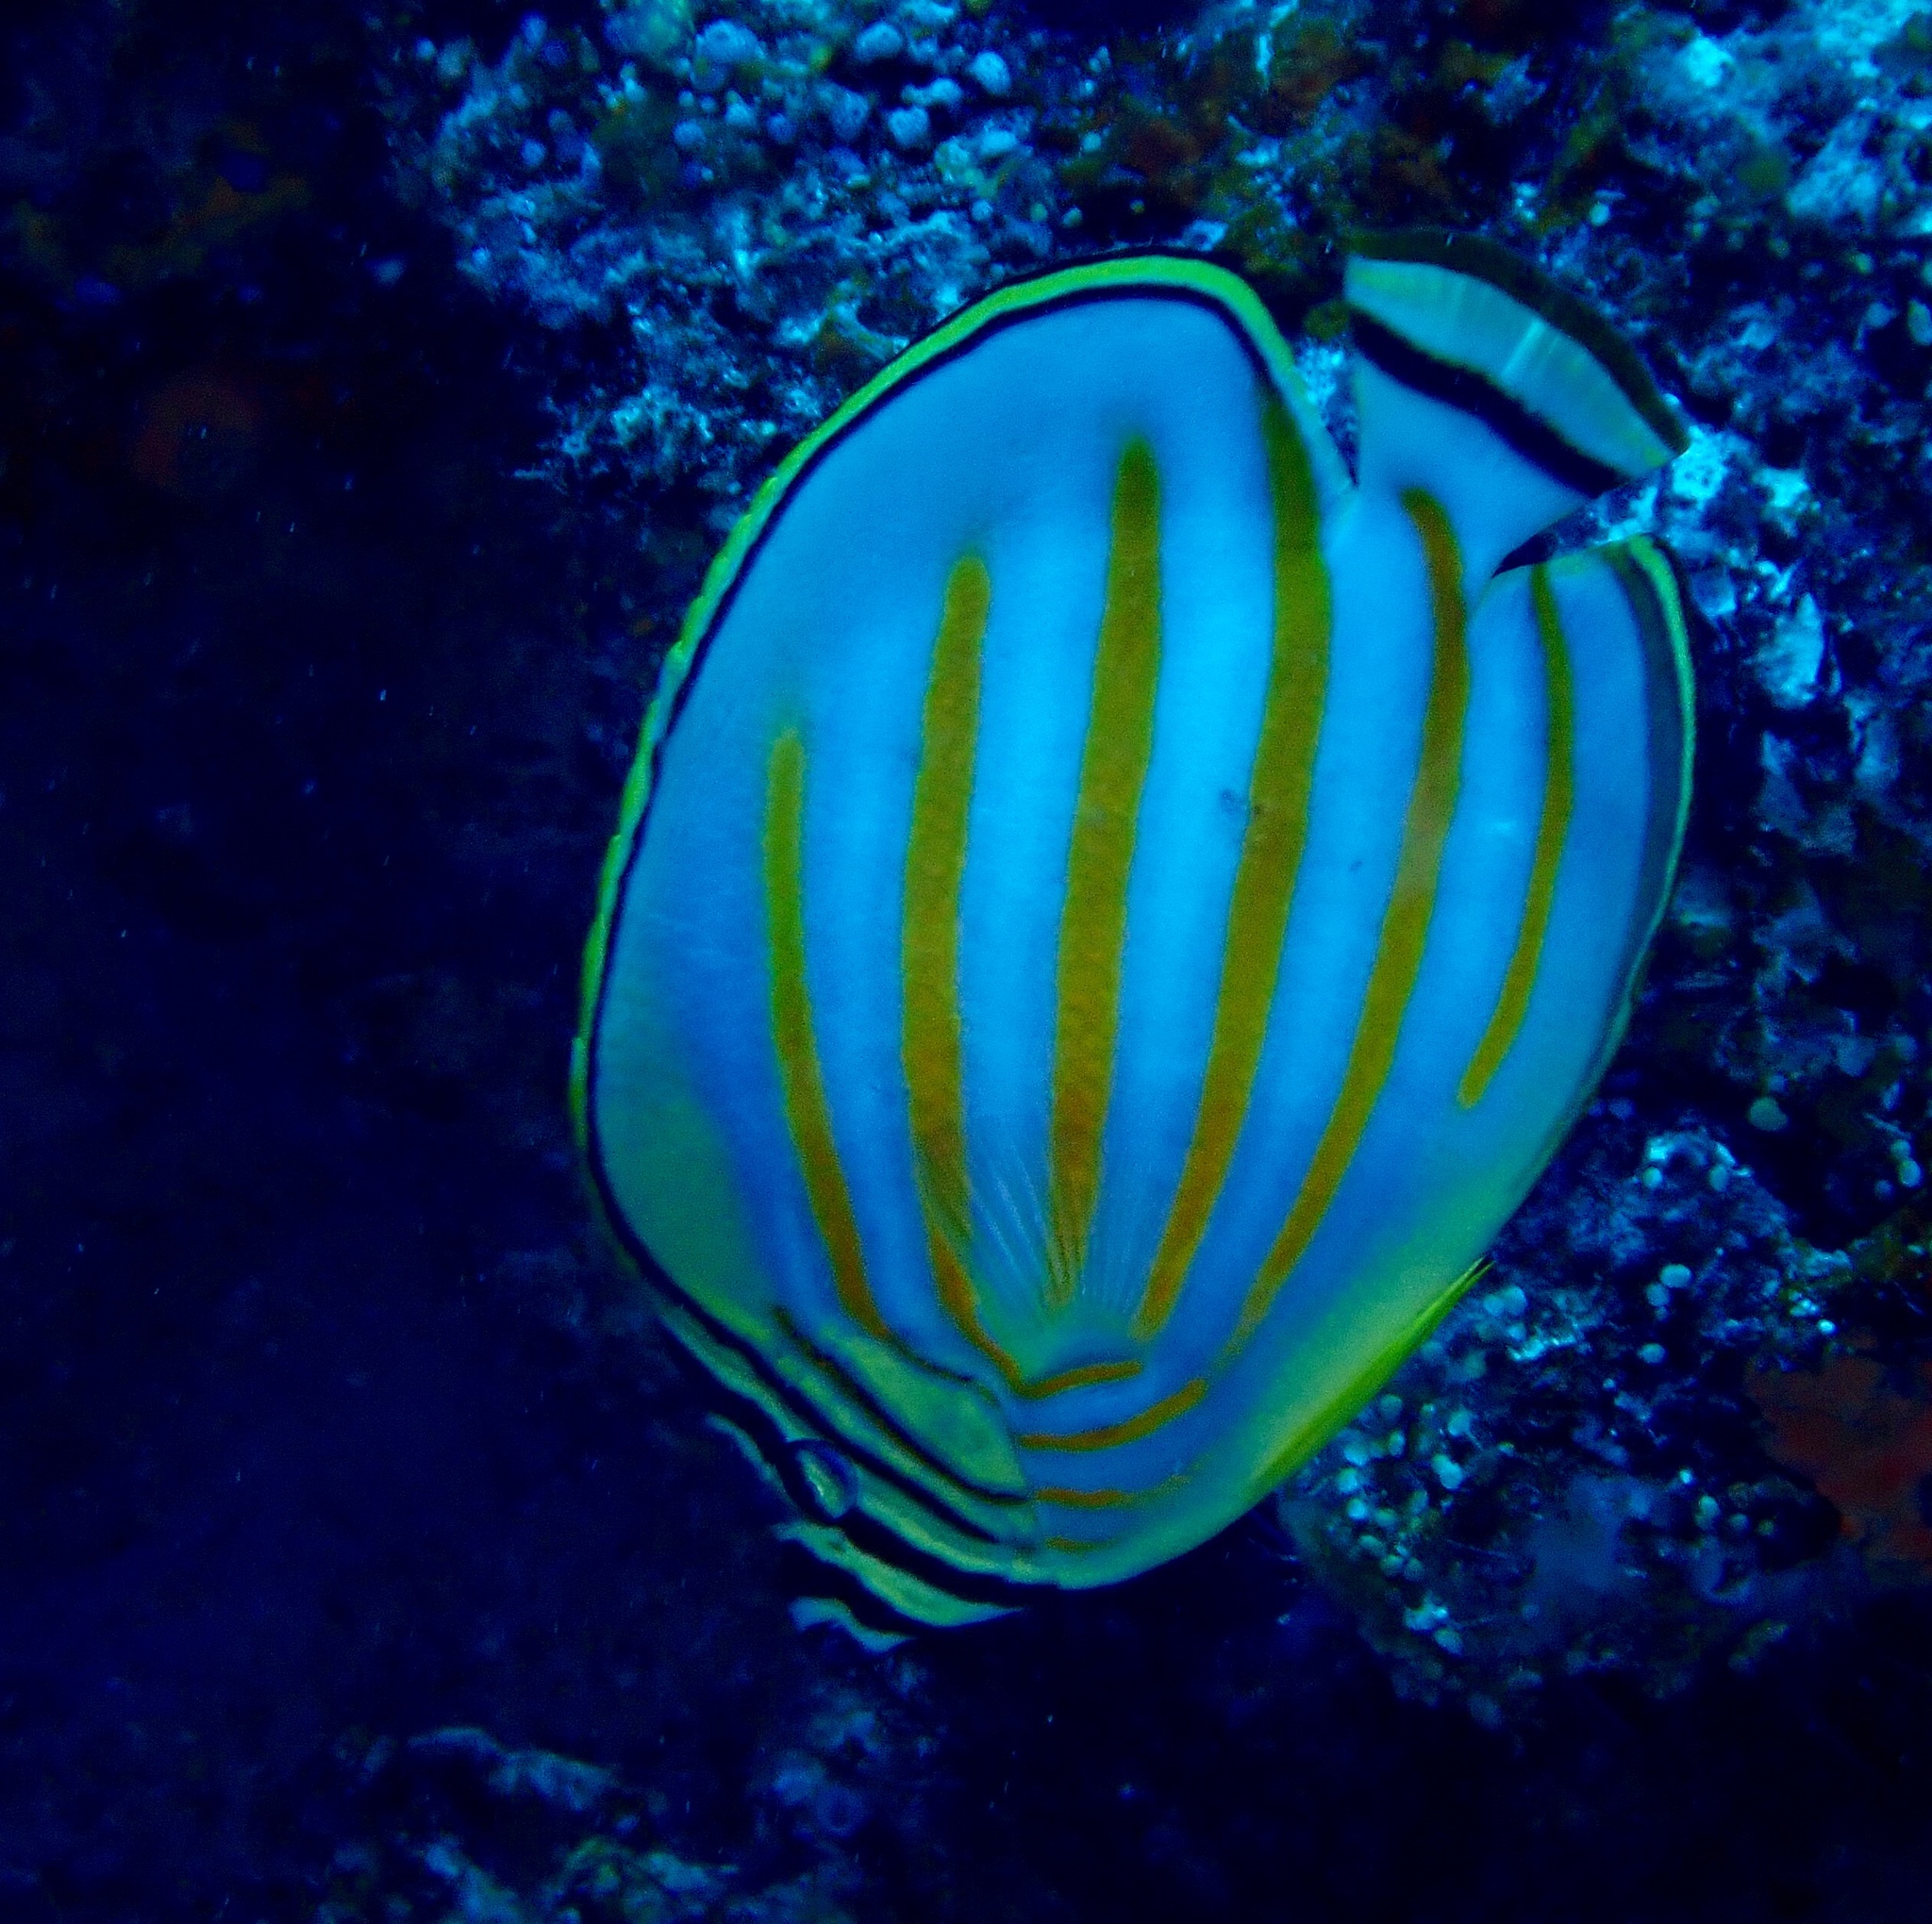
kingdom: Animalia
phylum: Chordata
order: Perciformes
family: Chaetodontidae
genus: Chaetodon
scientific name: Chaetodon ornatissimus
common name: Ornate butterflyfish
